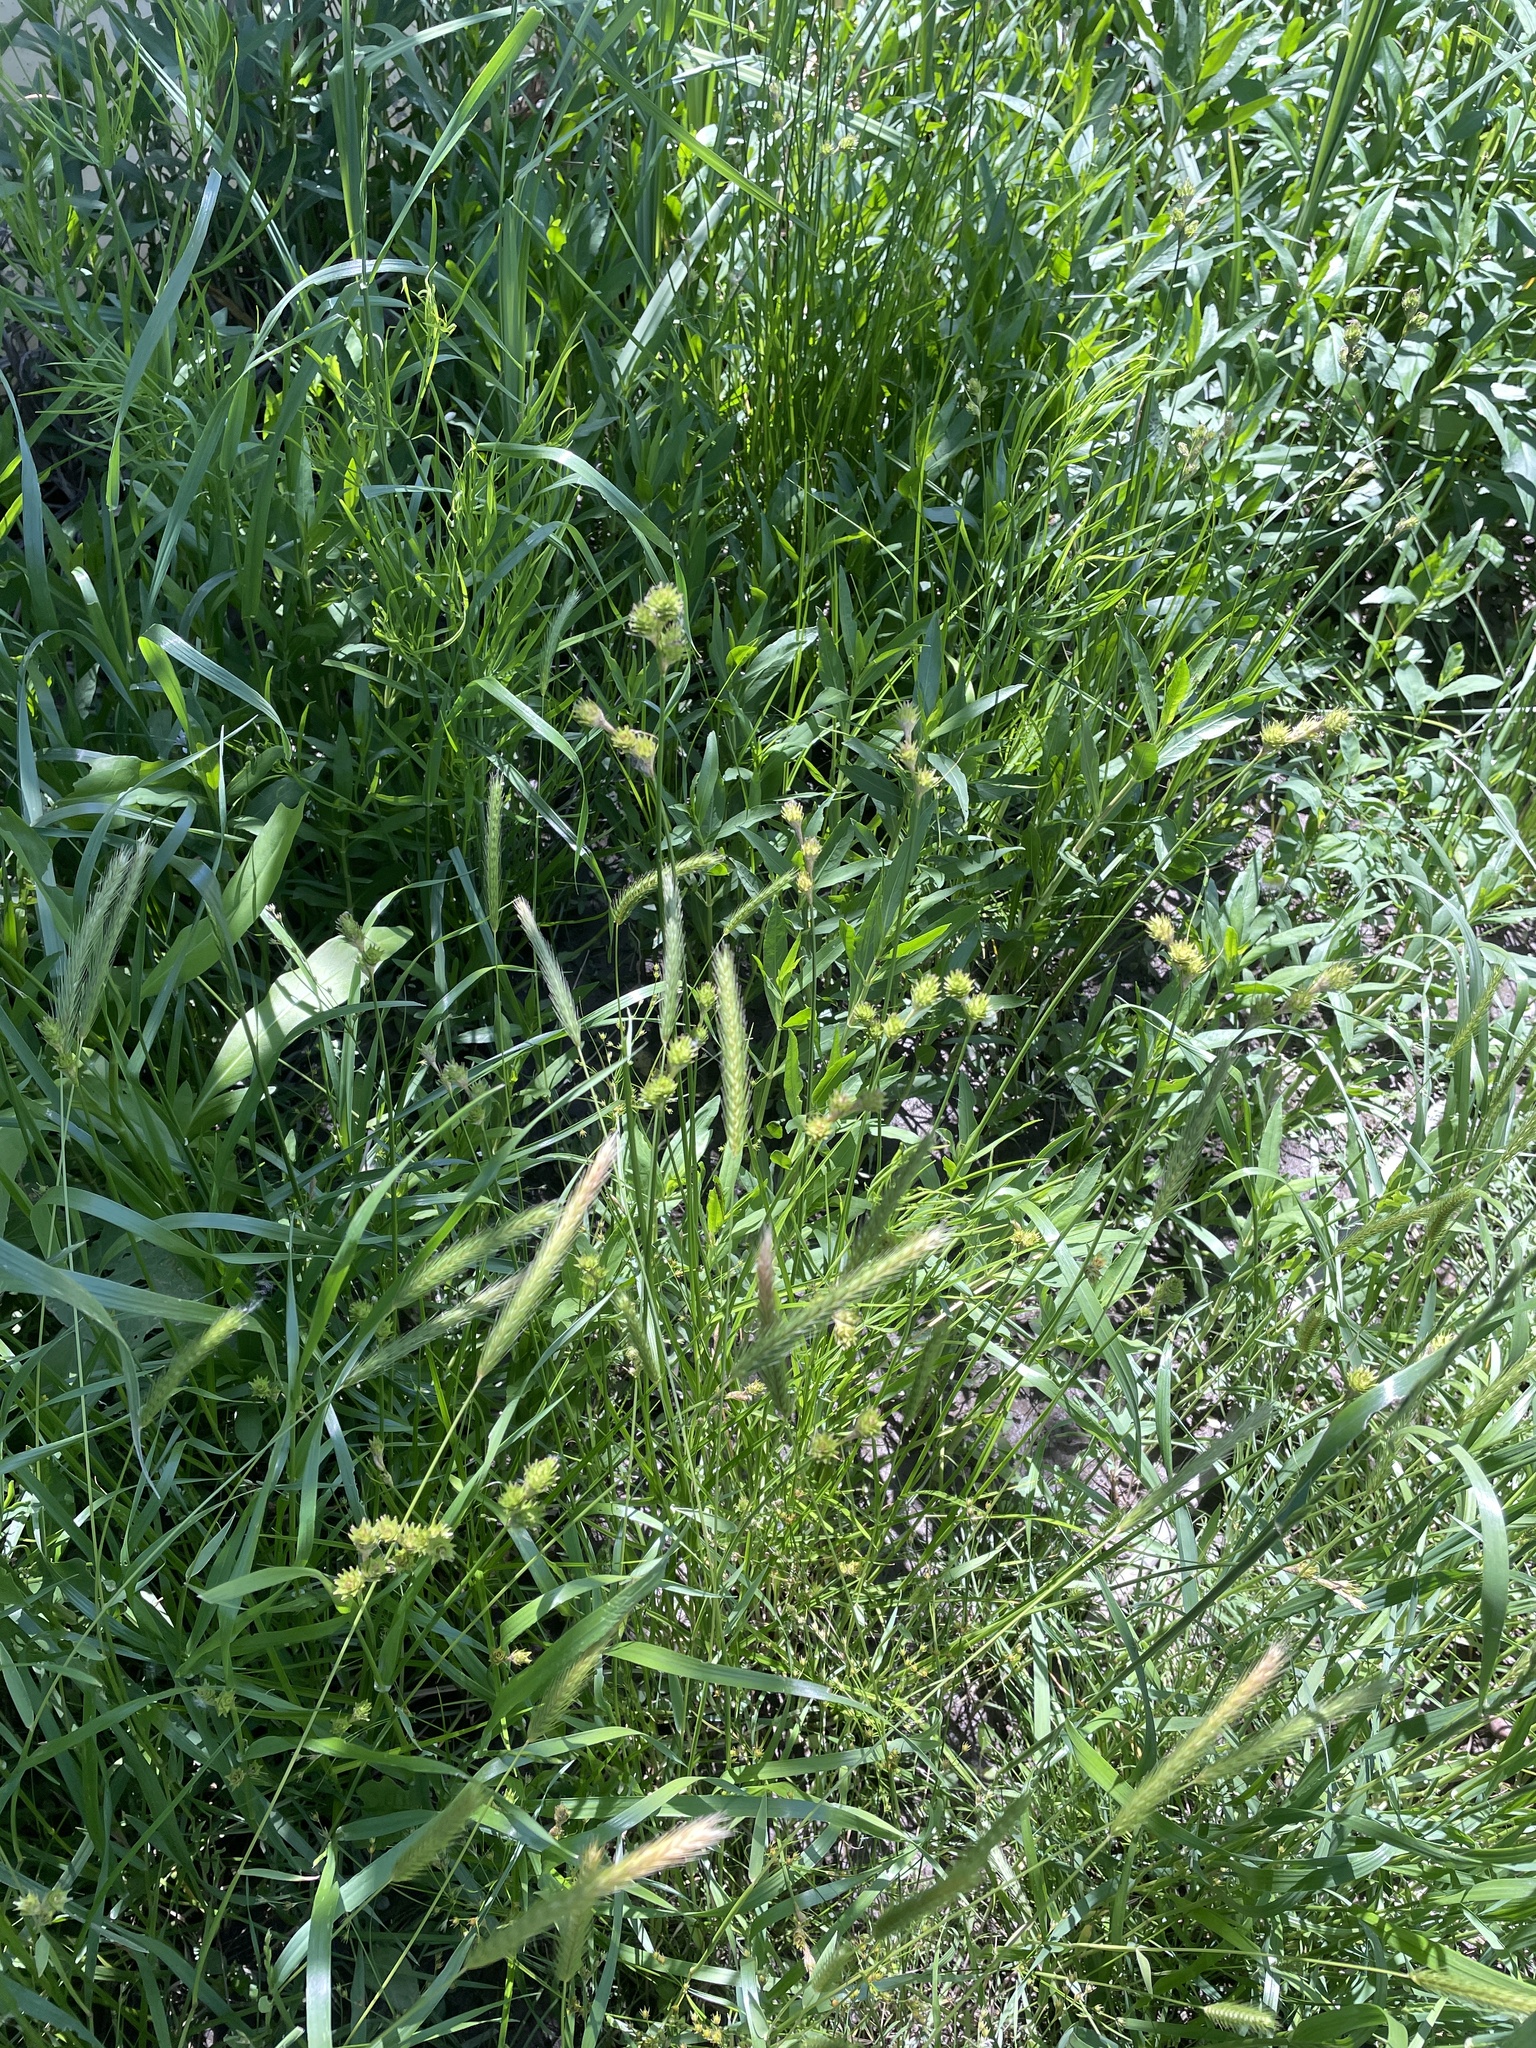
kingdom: Plantae
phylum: Tracheophyta
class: Liliopsida
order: Poales
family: Cyperaceae
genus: Carex
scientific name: Carex tetrastachya
